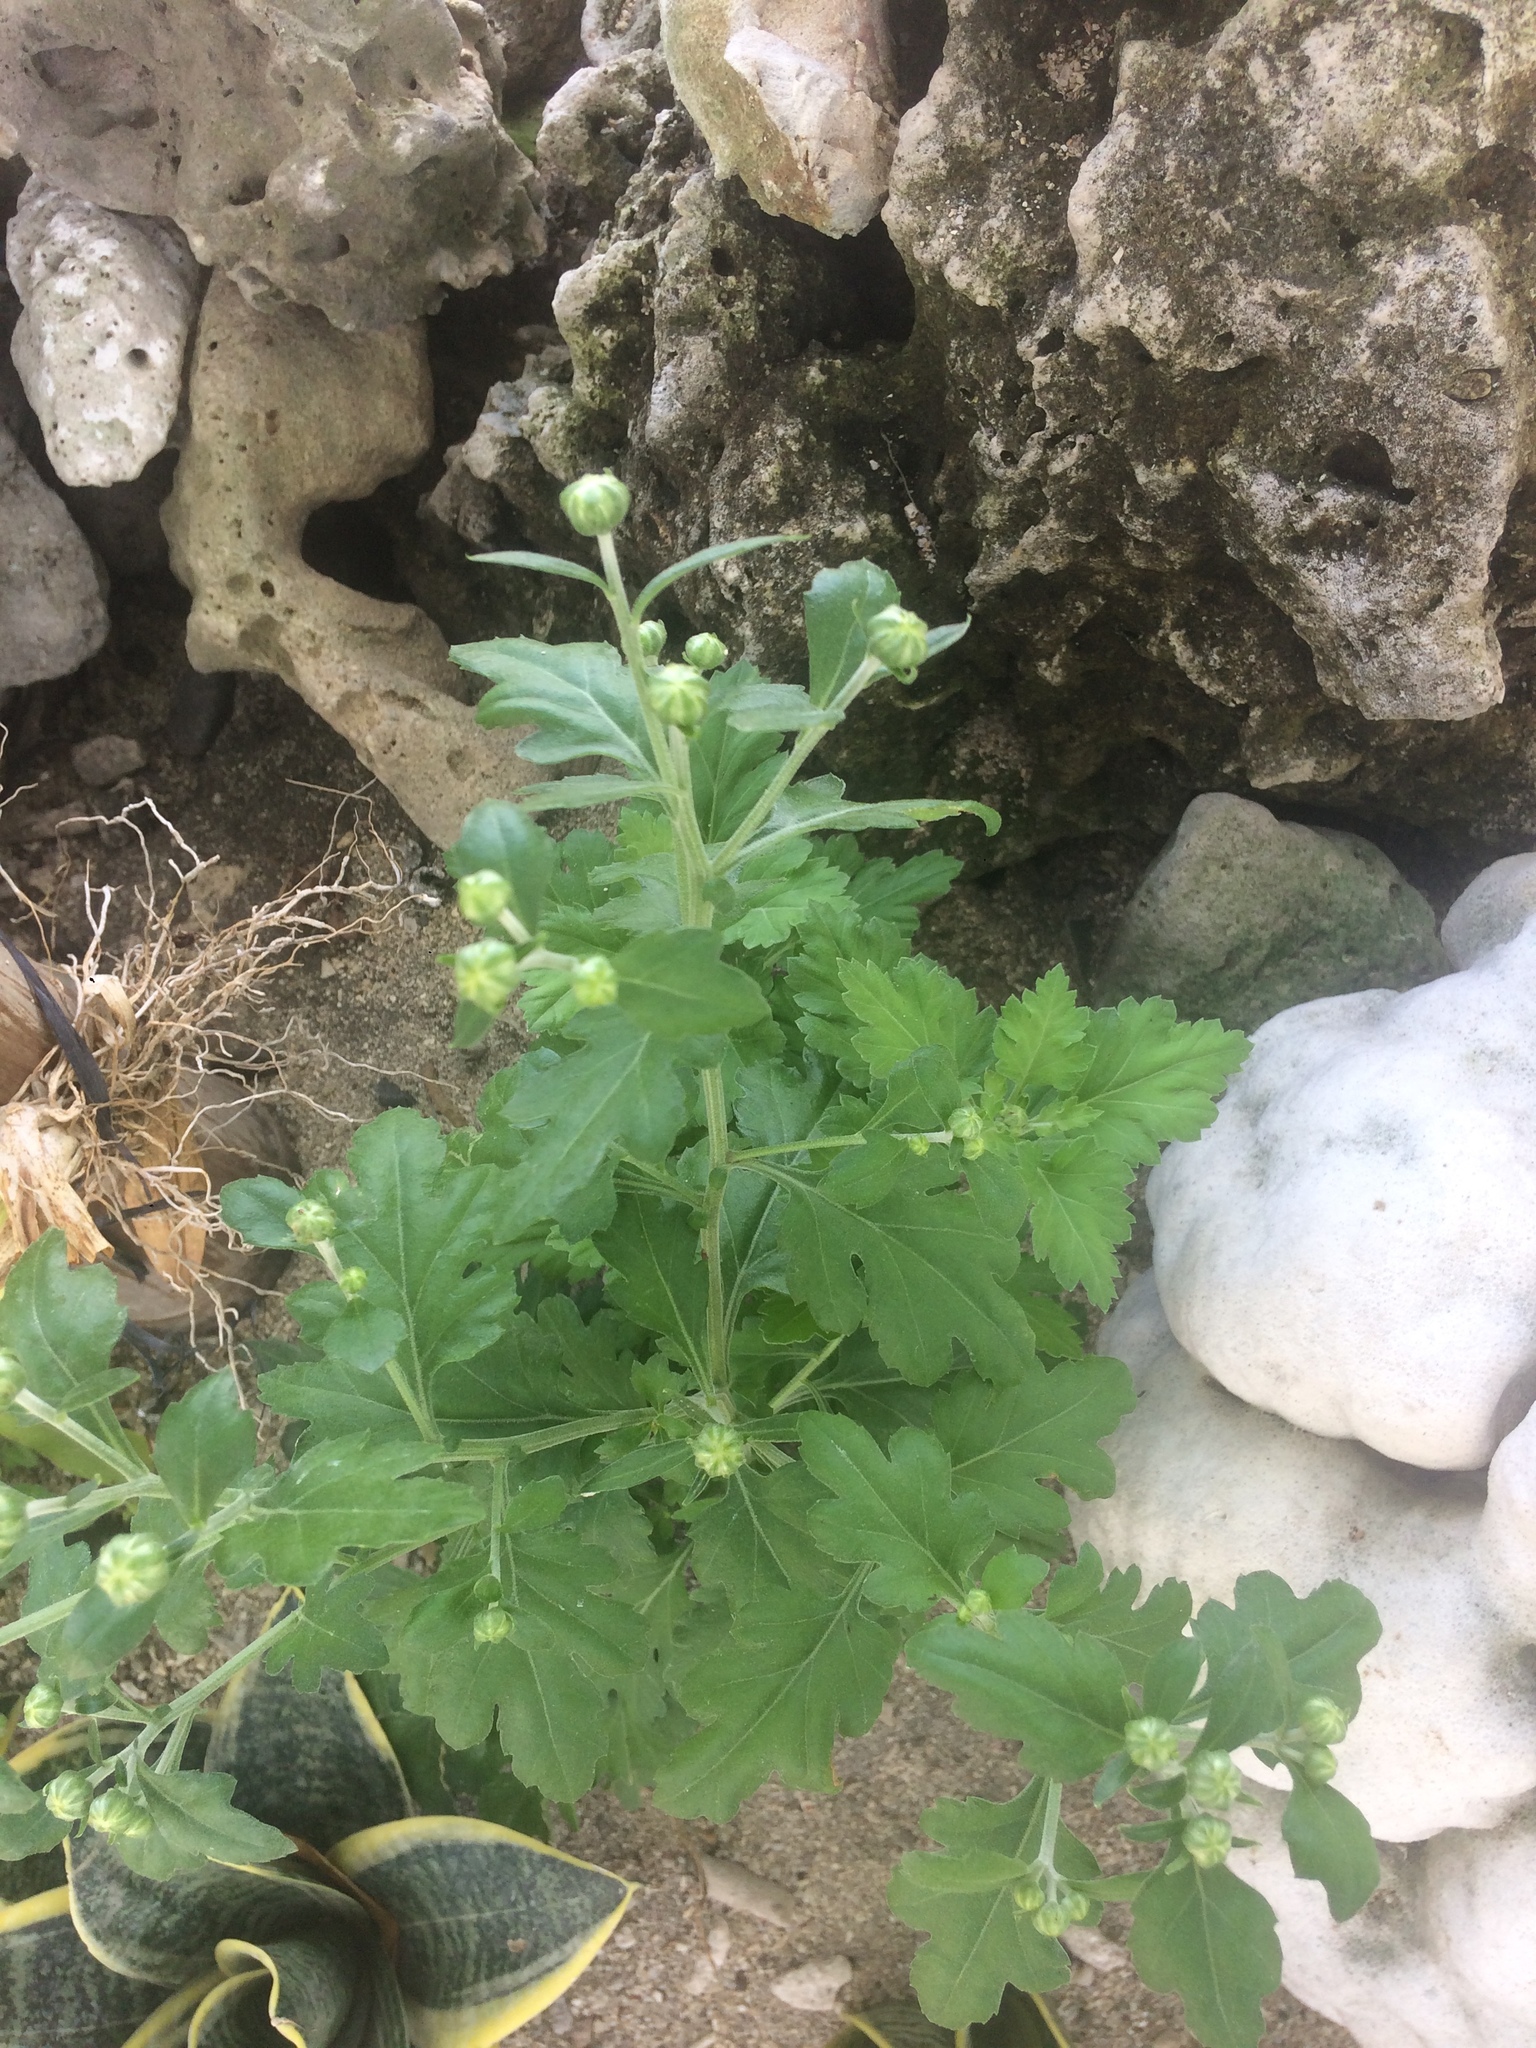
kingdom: Plantae
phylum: Tracheophyta
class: Magnoliopsida
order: Asterales
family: Asteraceae
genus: Tanacetum
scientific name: Tanacetum parthenium
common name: Feverfew
